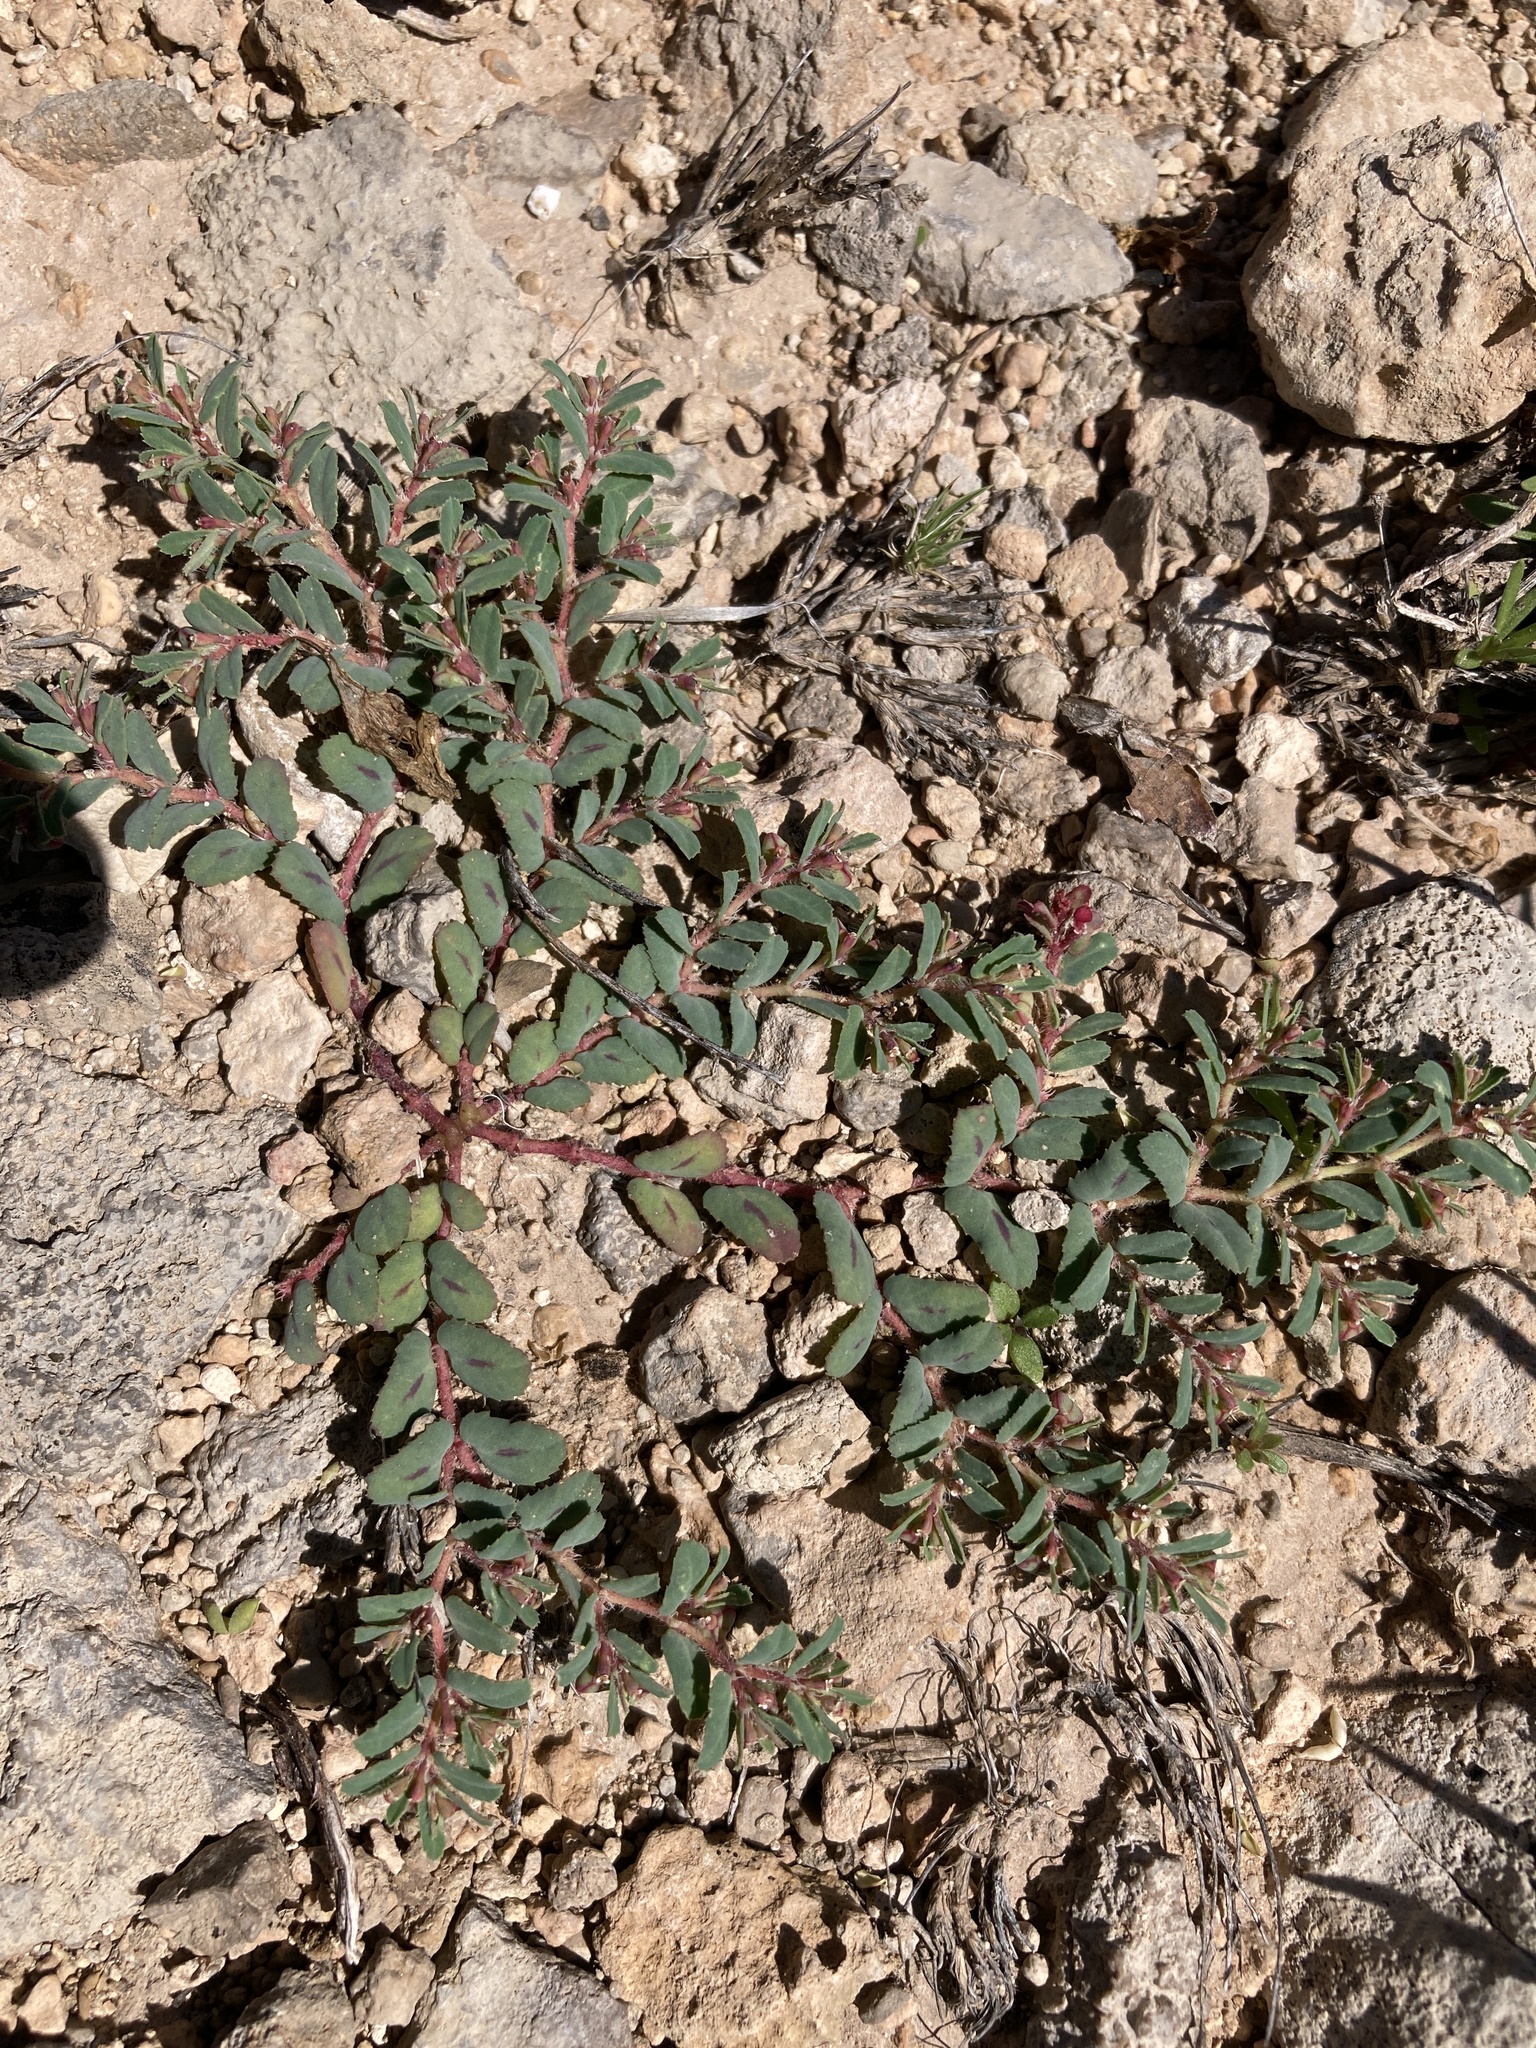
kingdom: Plantae
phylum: Tracheophyta
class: Magnoliopsida
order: Malpighiales
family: Euphorbiaceae
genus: Euphorbia
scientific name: Euphorbia serrula
